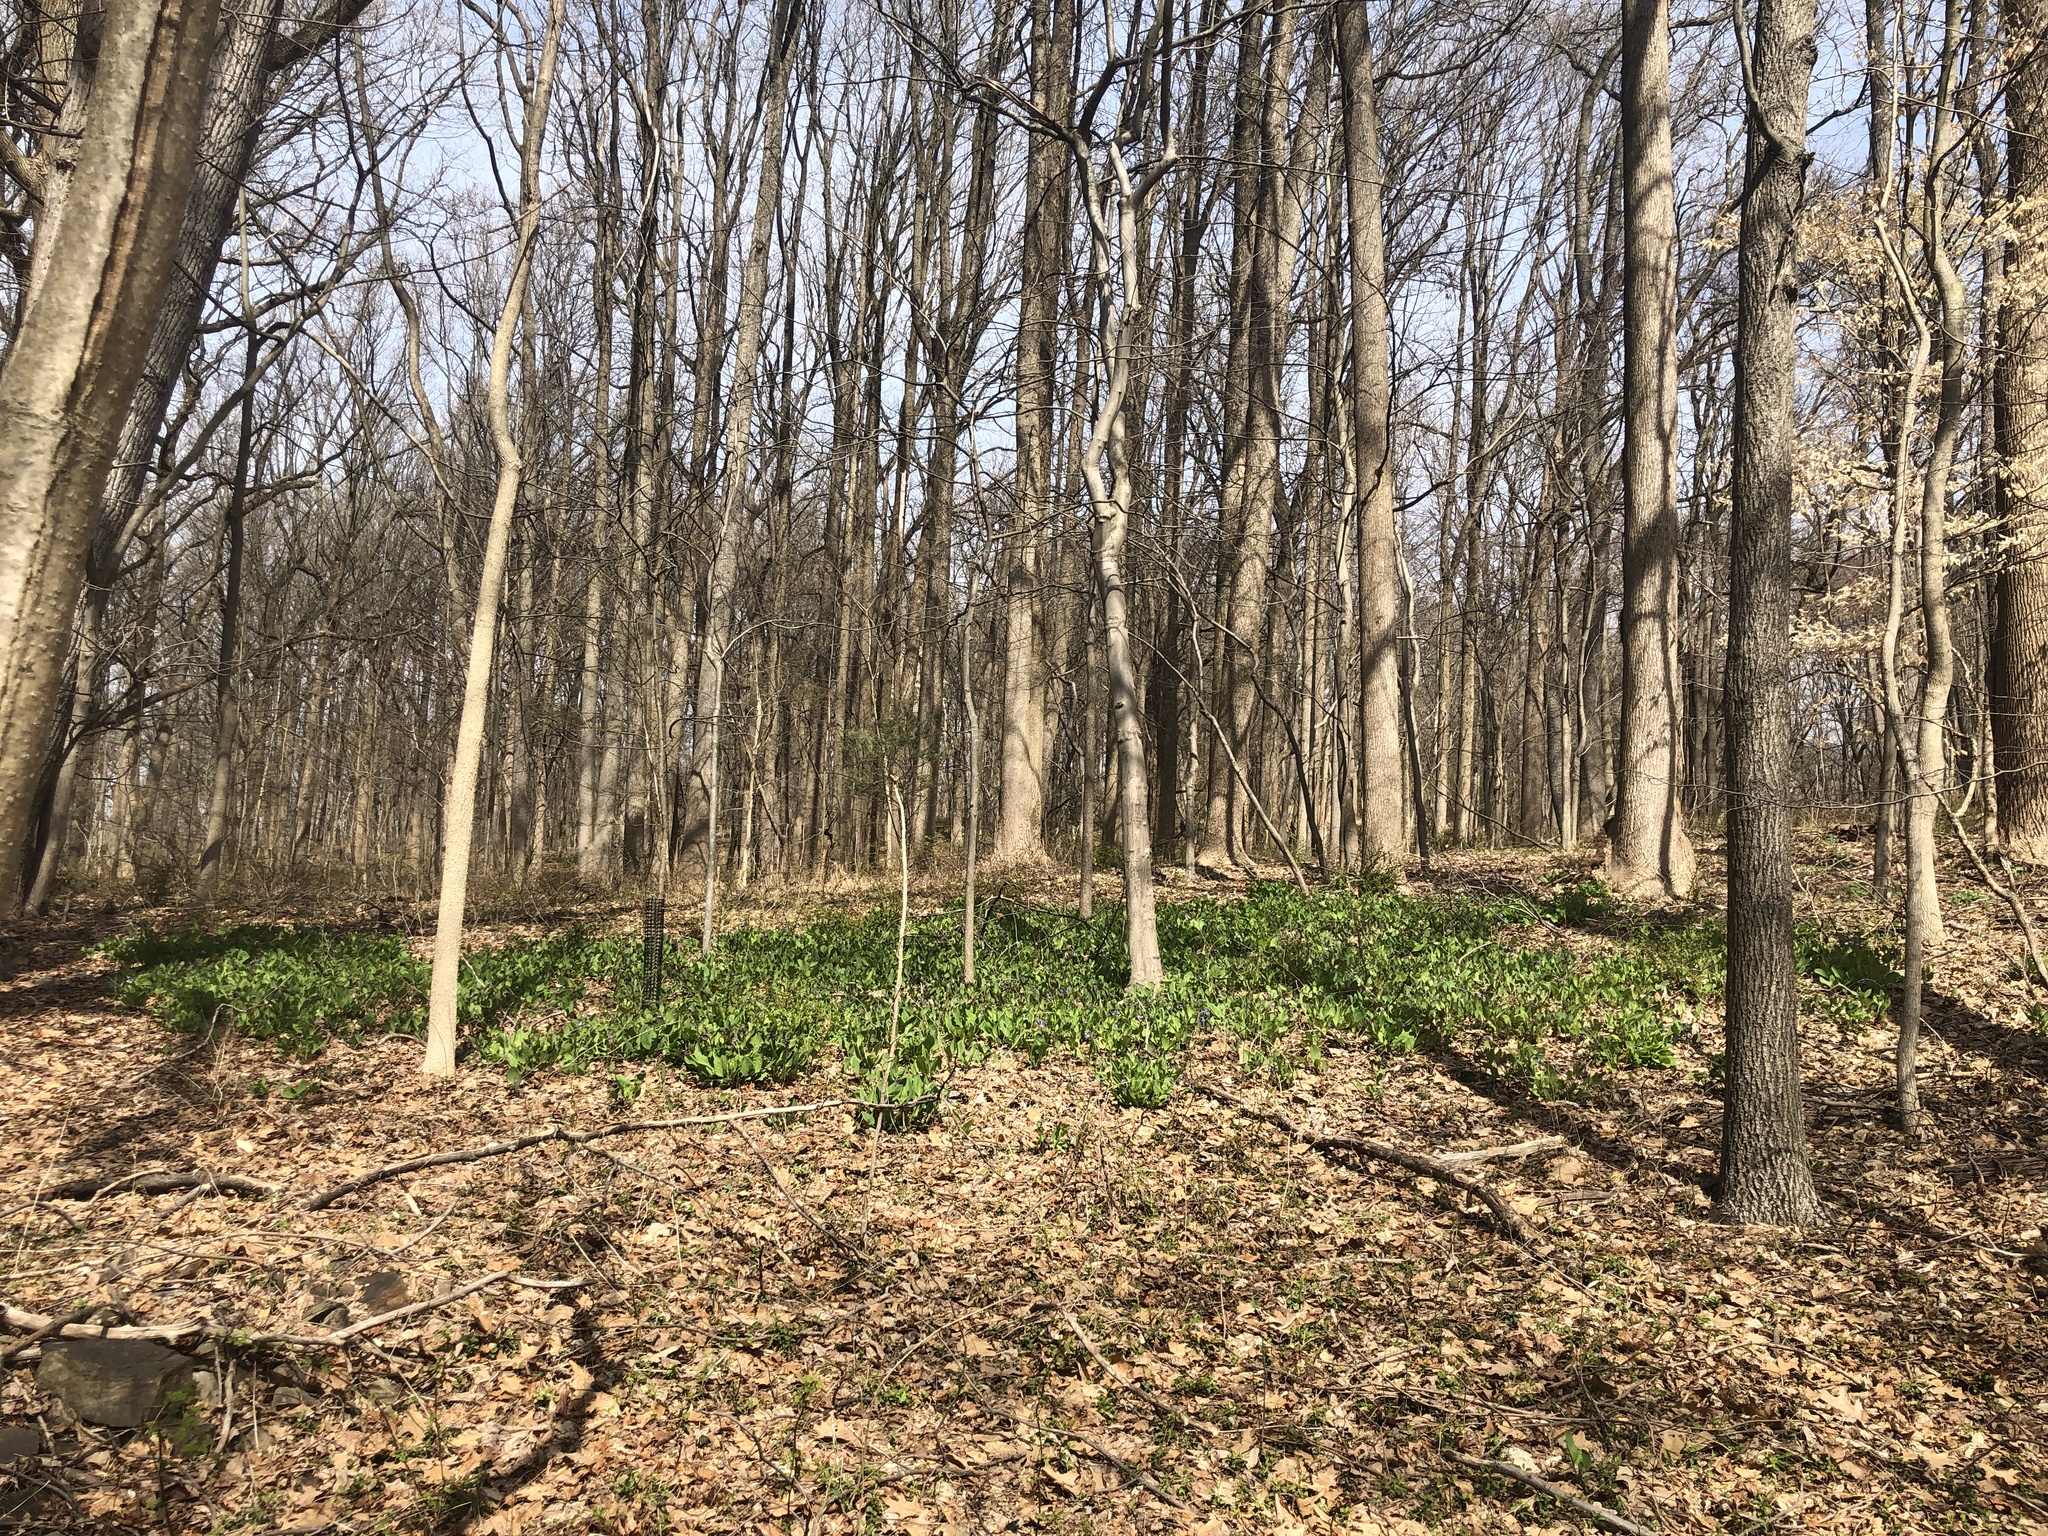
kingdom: Plantae
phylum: Tracheophyta
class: Magnoliopsida
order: Boraginales
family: Boraginaceae
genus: Mertensia
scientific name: Mertensia virginica
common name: Virginia bluebells
